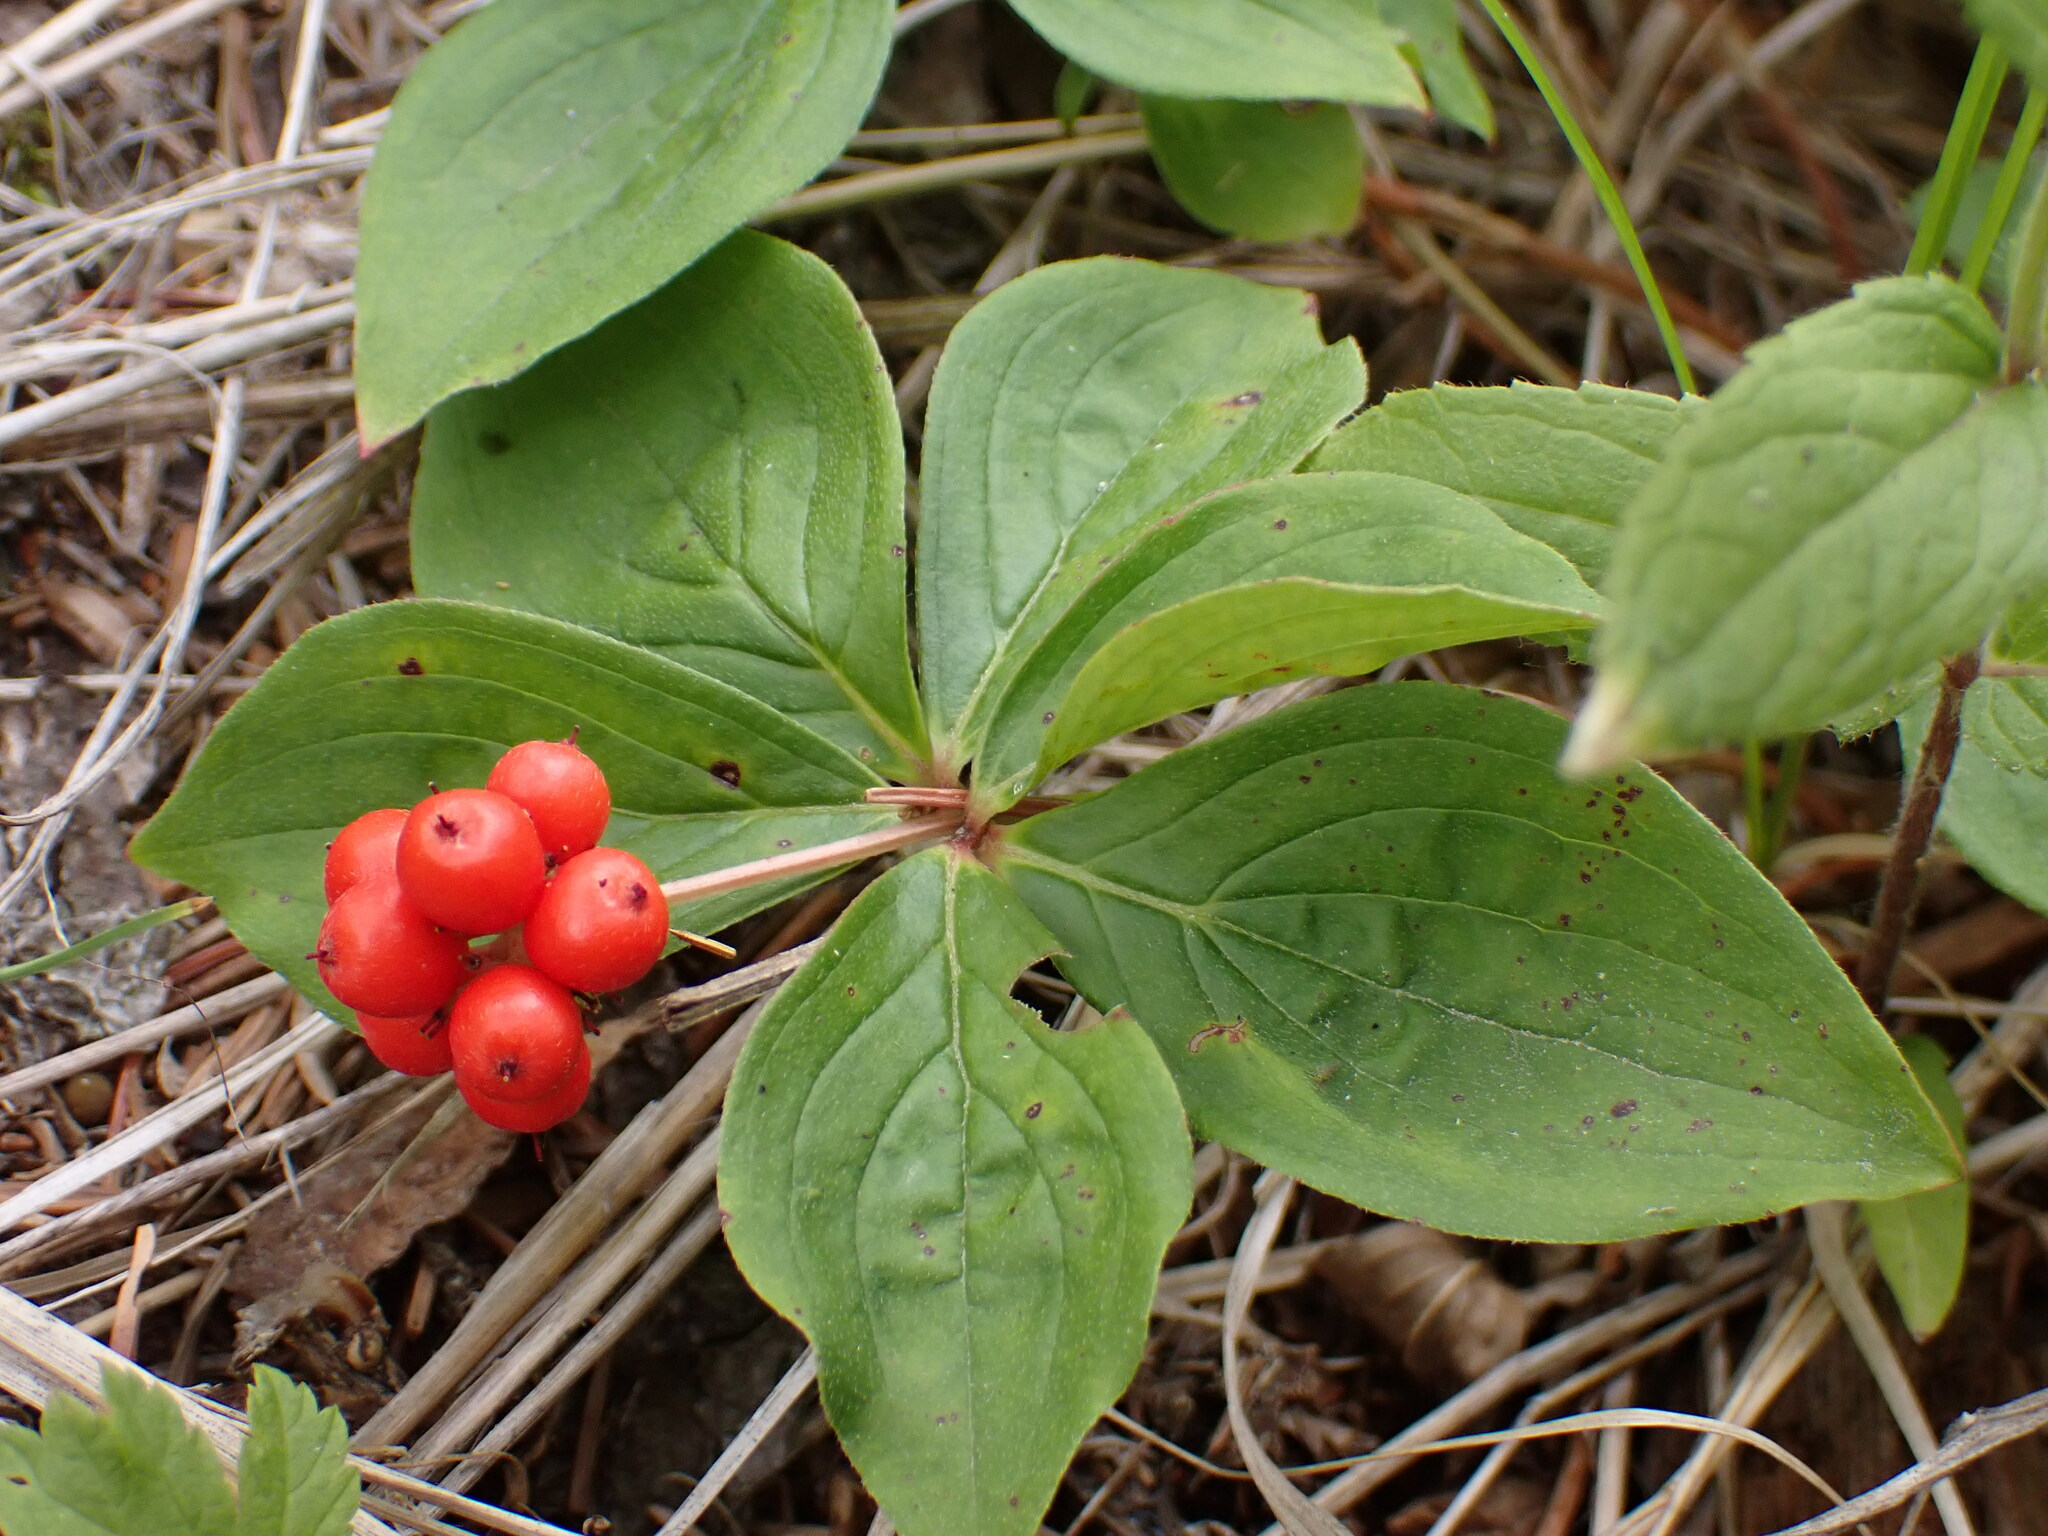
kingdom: Plantae
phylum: Tracheophyta
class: Magnoliopsida
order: Cornales
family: Cornaceae
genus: Cornus
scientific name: Cornus canadensis
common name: Creeping dogwood
